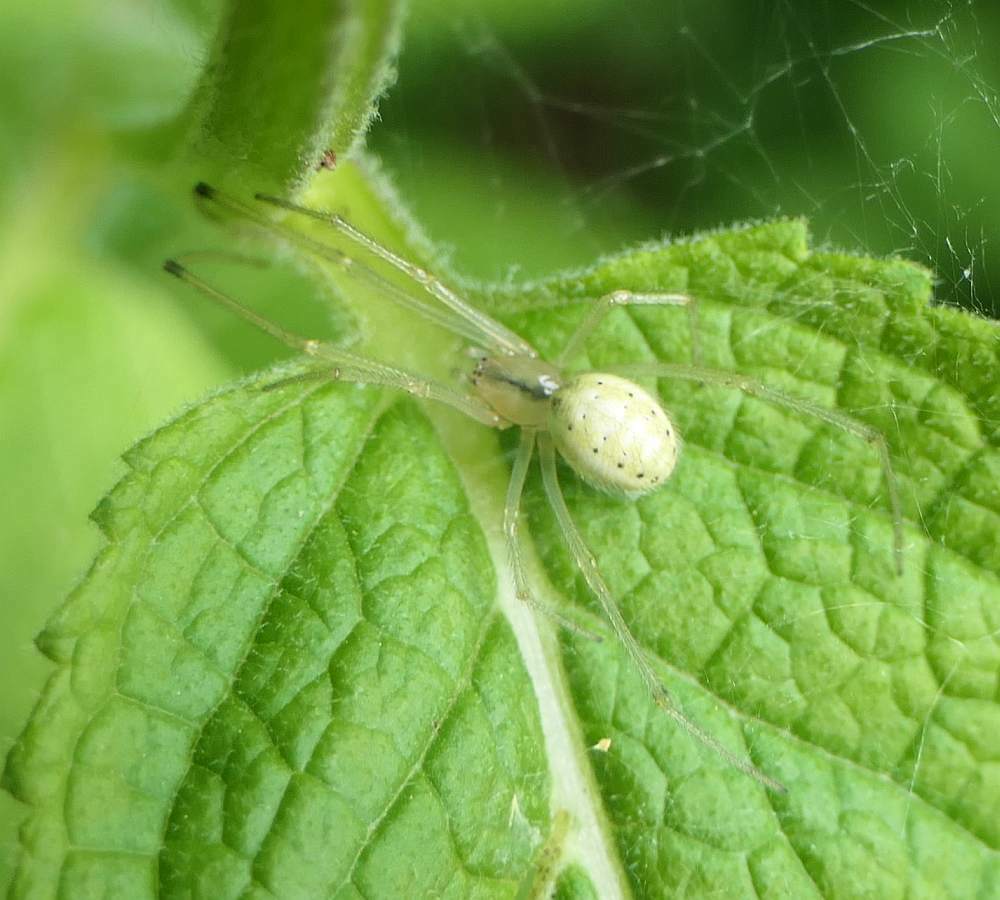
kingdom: Animalia
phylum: Arthropoda
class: Arachnida
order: Araneae
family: Theridiidae
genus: Enoplognatha
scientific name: Enoplognatha ovata
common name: Common candy-striped spider
